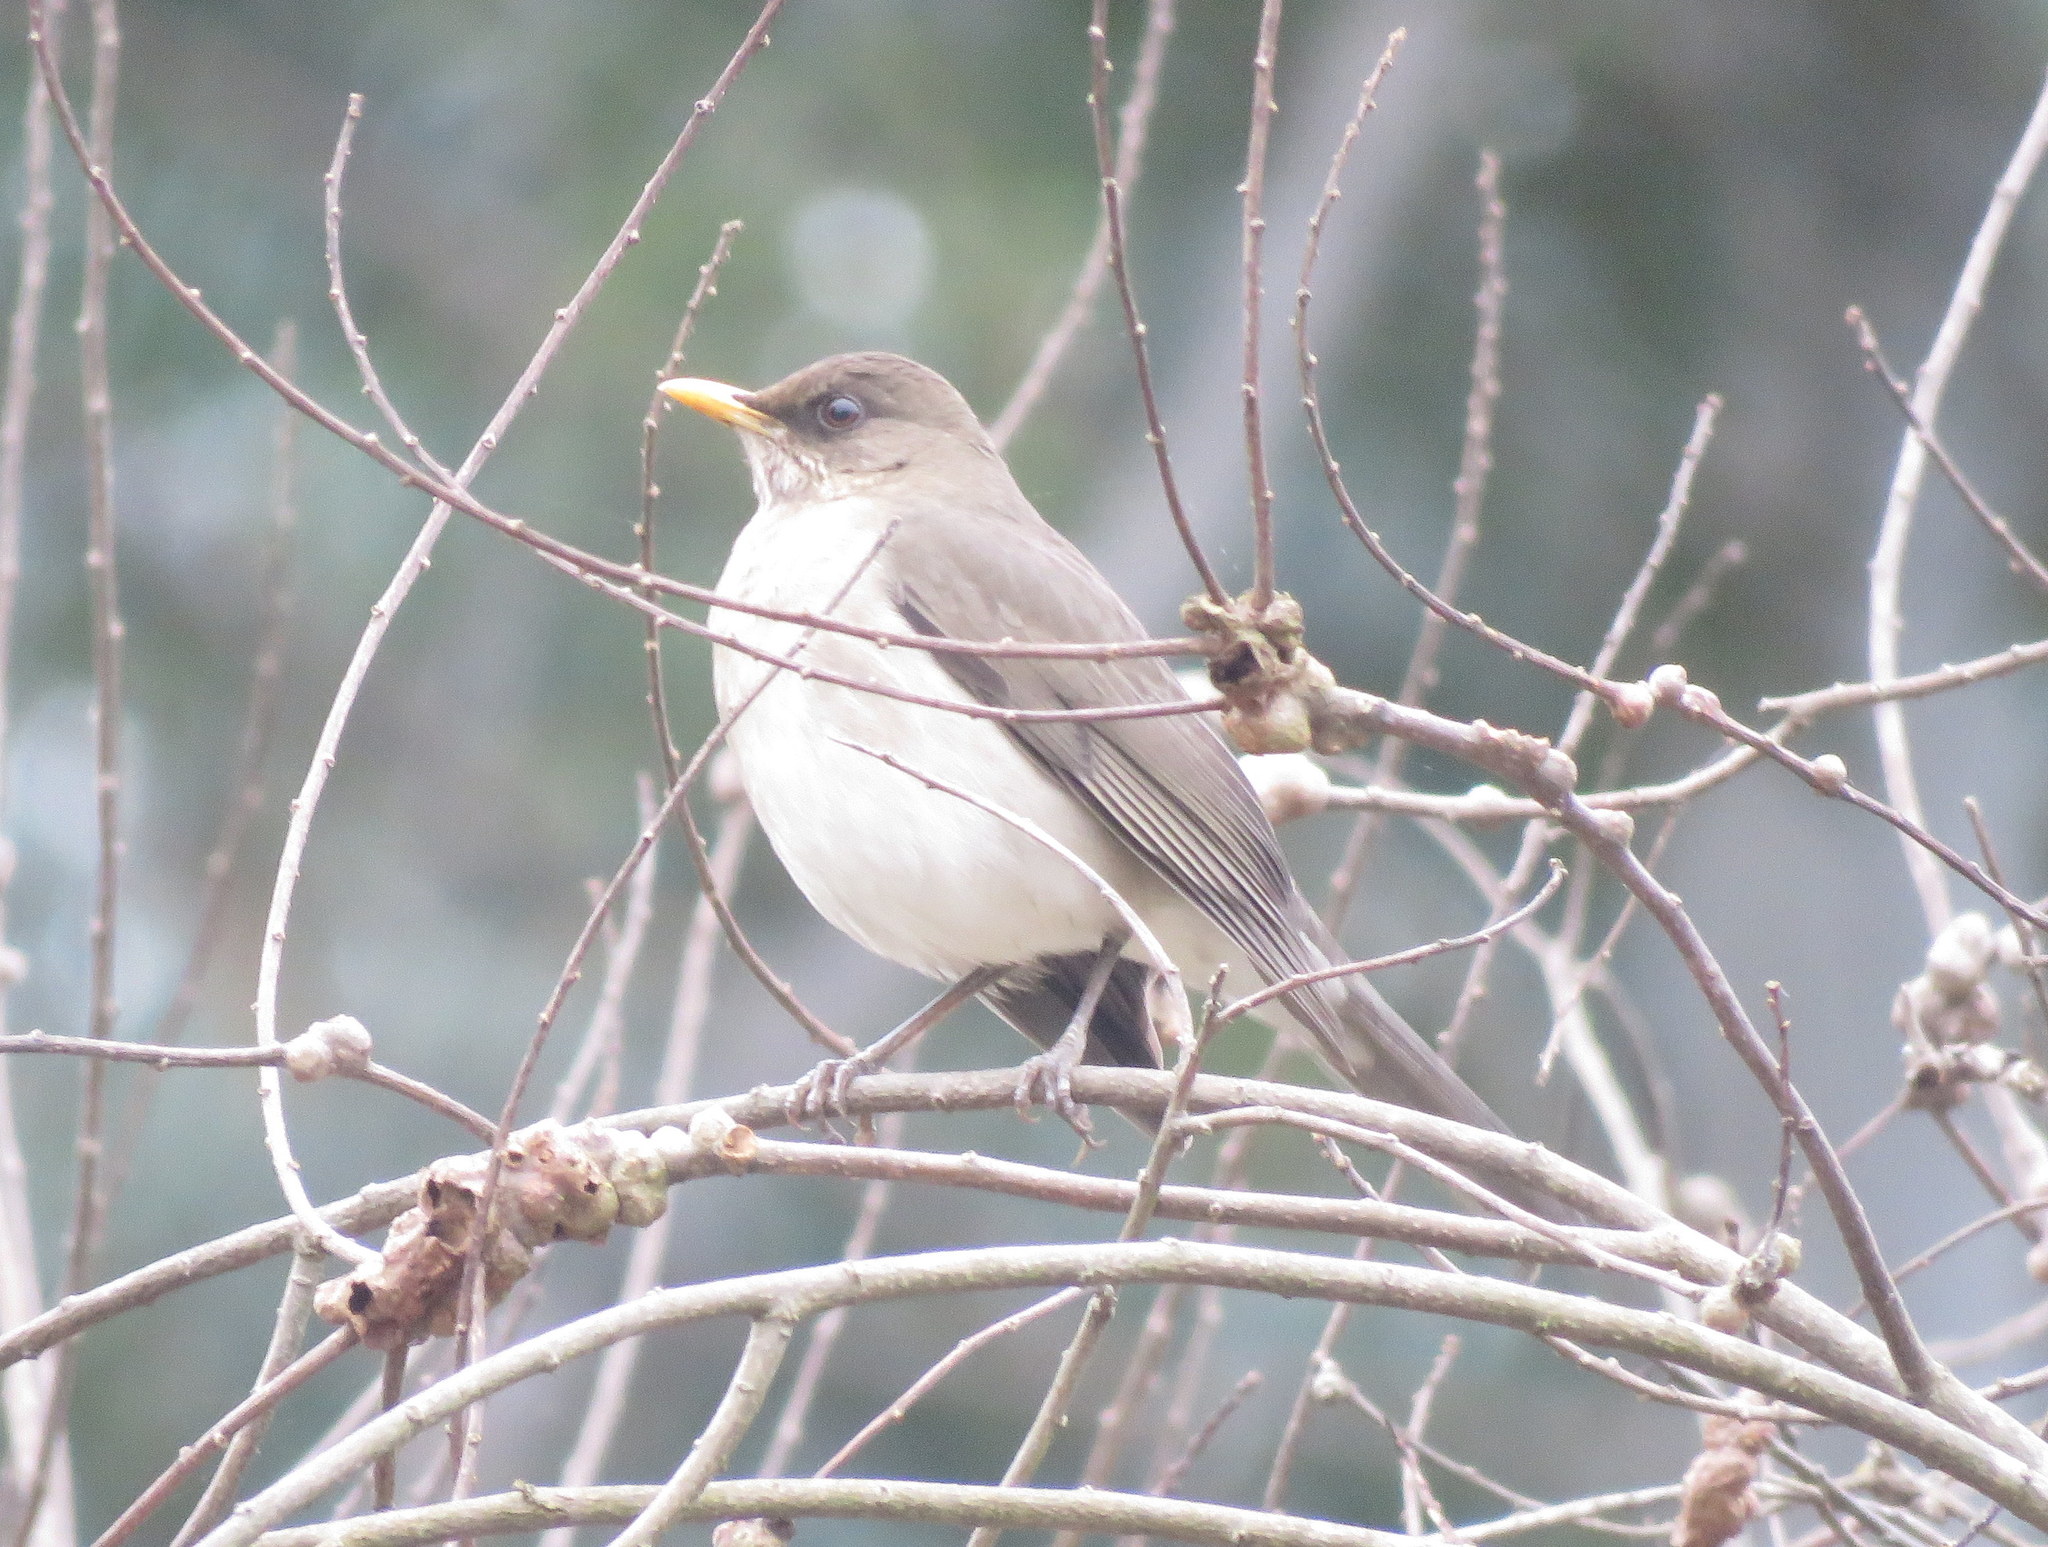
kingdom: Animalia
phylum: Chordata
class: Aves
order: Passeriformes
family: Turdidae
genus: Turdus
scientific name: Turdus amaurochalinus
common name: Creamy-bellied thrush
